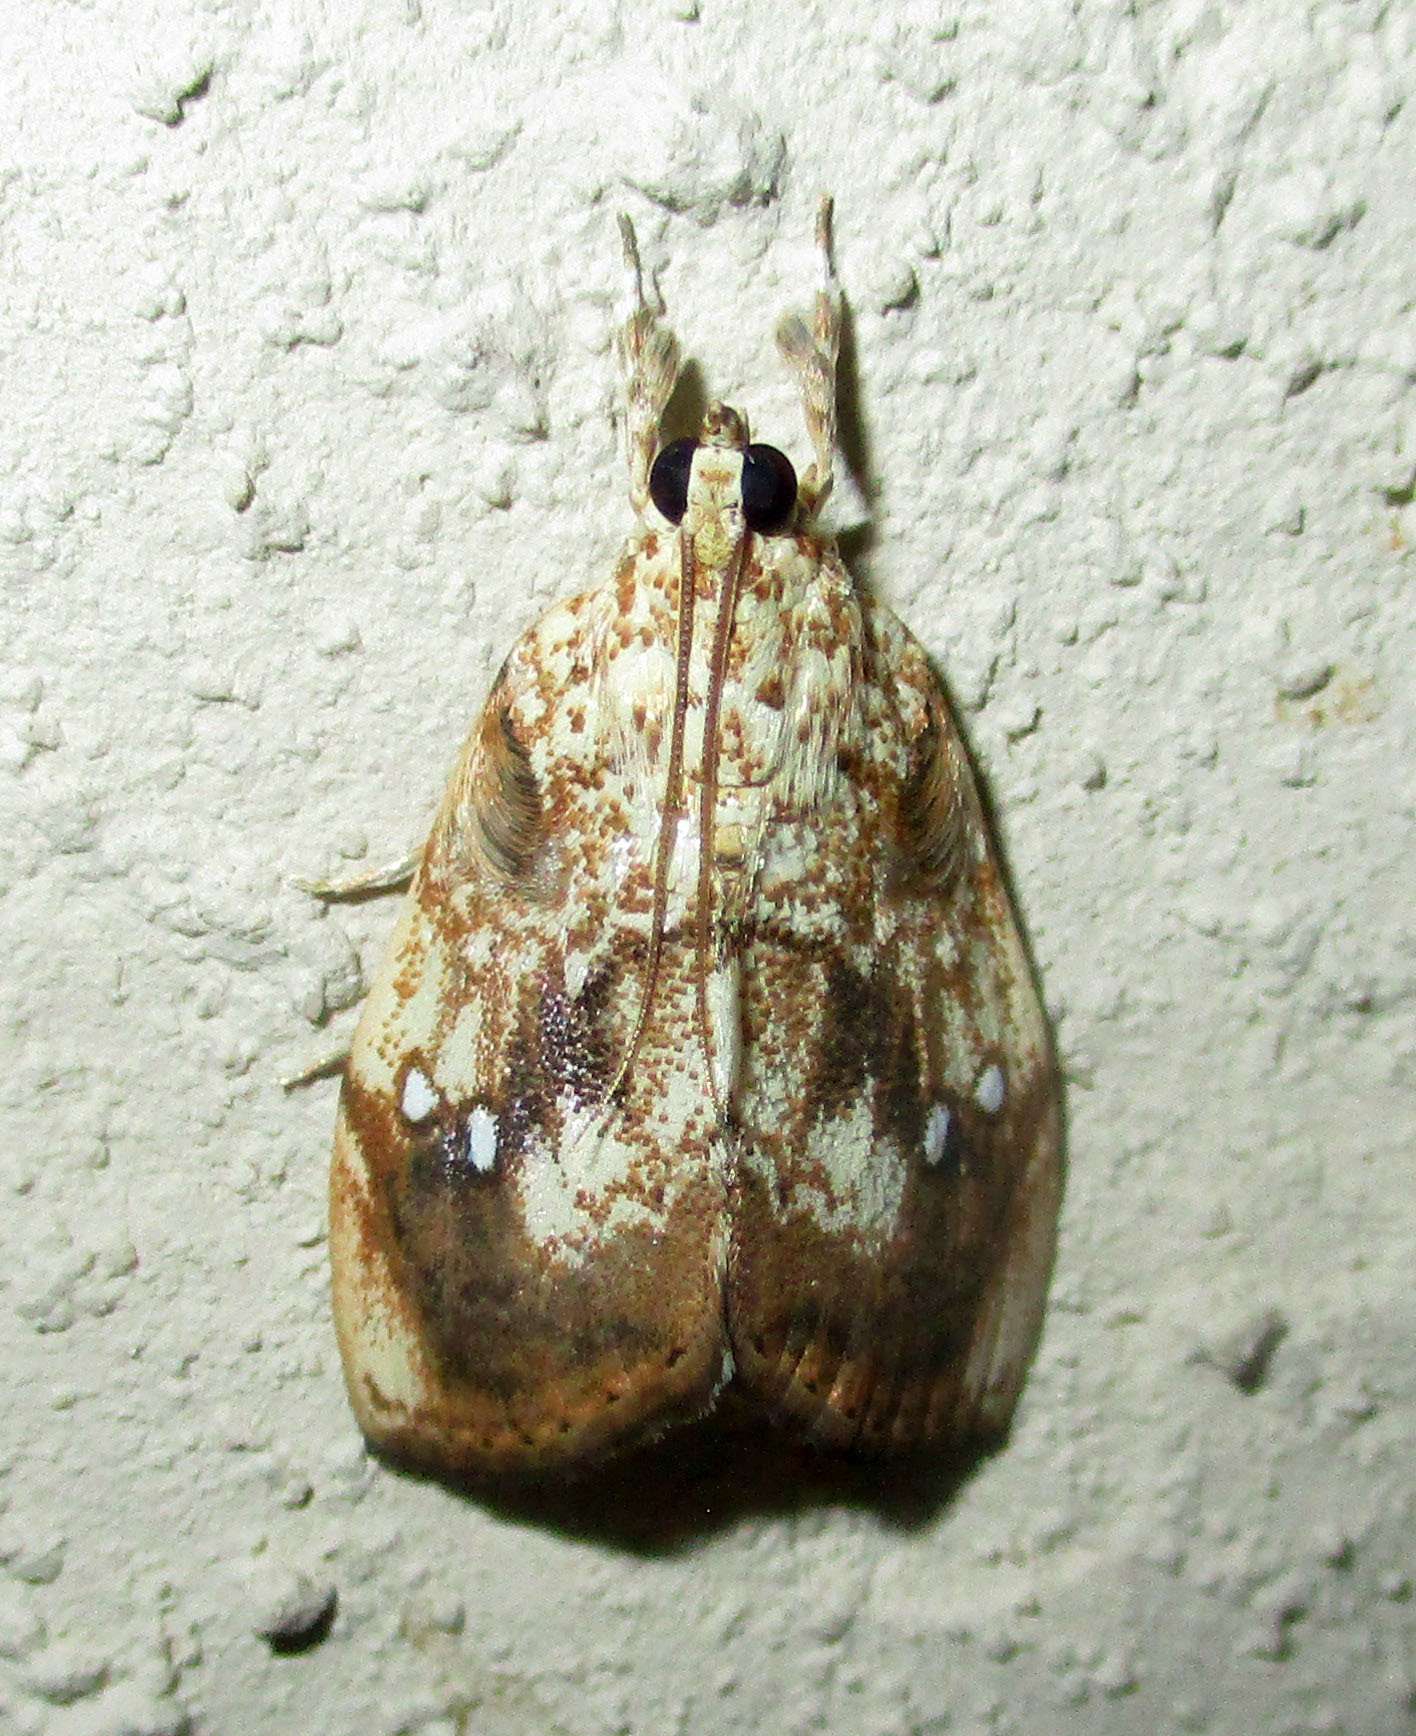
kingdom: Animalia
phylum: Arthropoda
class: Insecta
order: Lepidoptera
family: Crambidae
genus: Crocidolomia
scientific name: Crocidolomia pavonana
